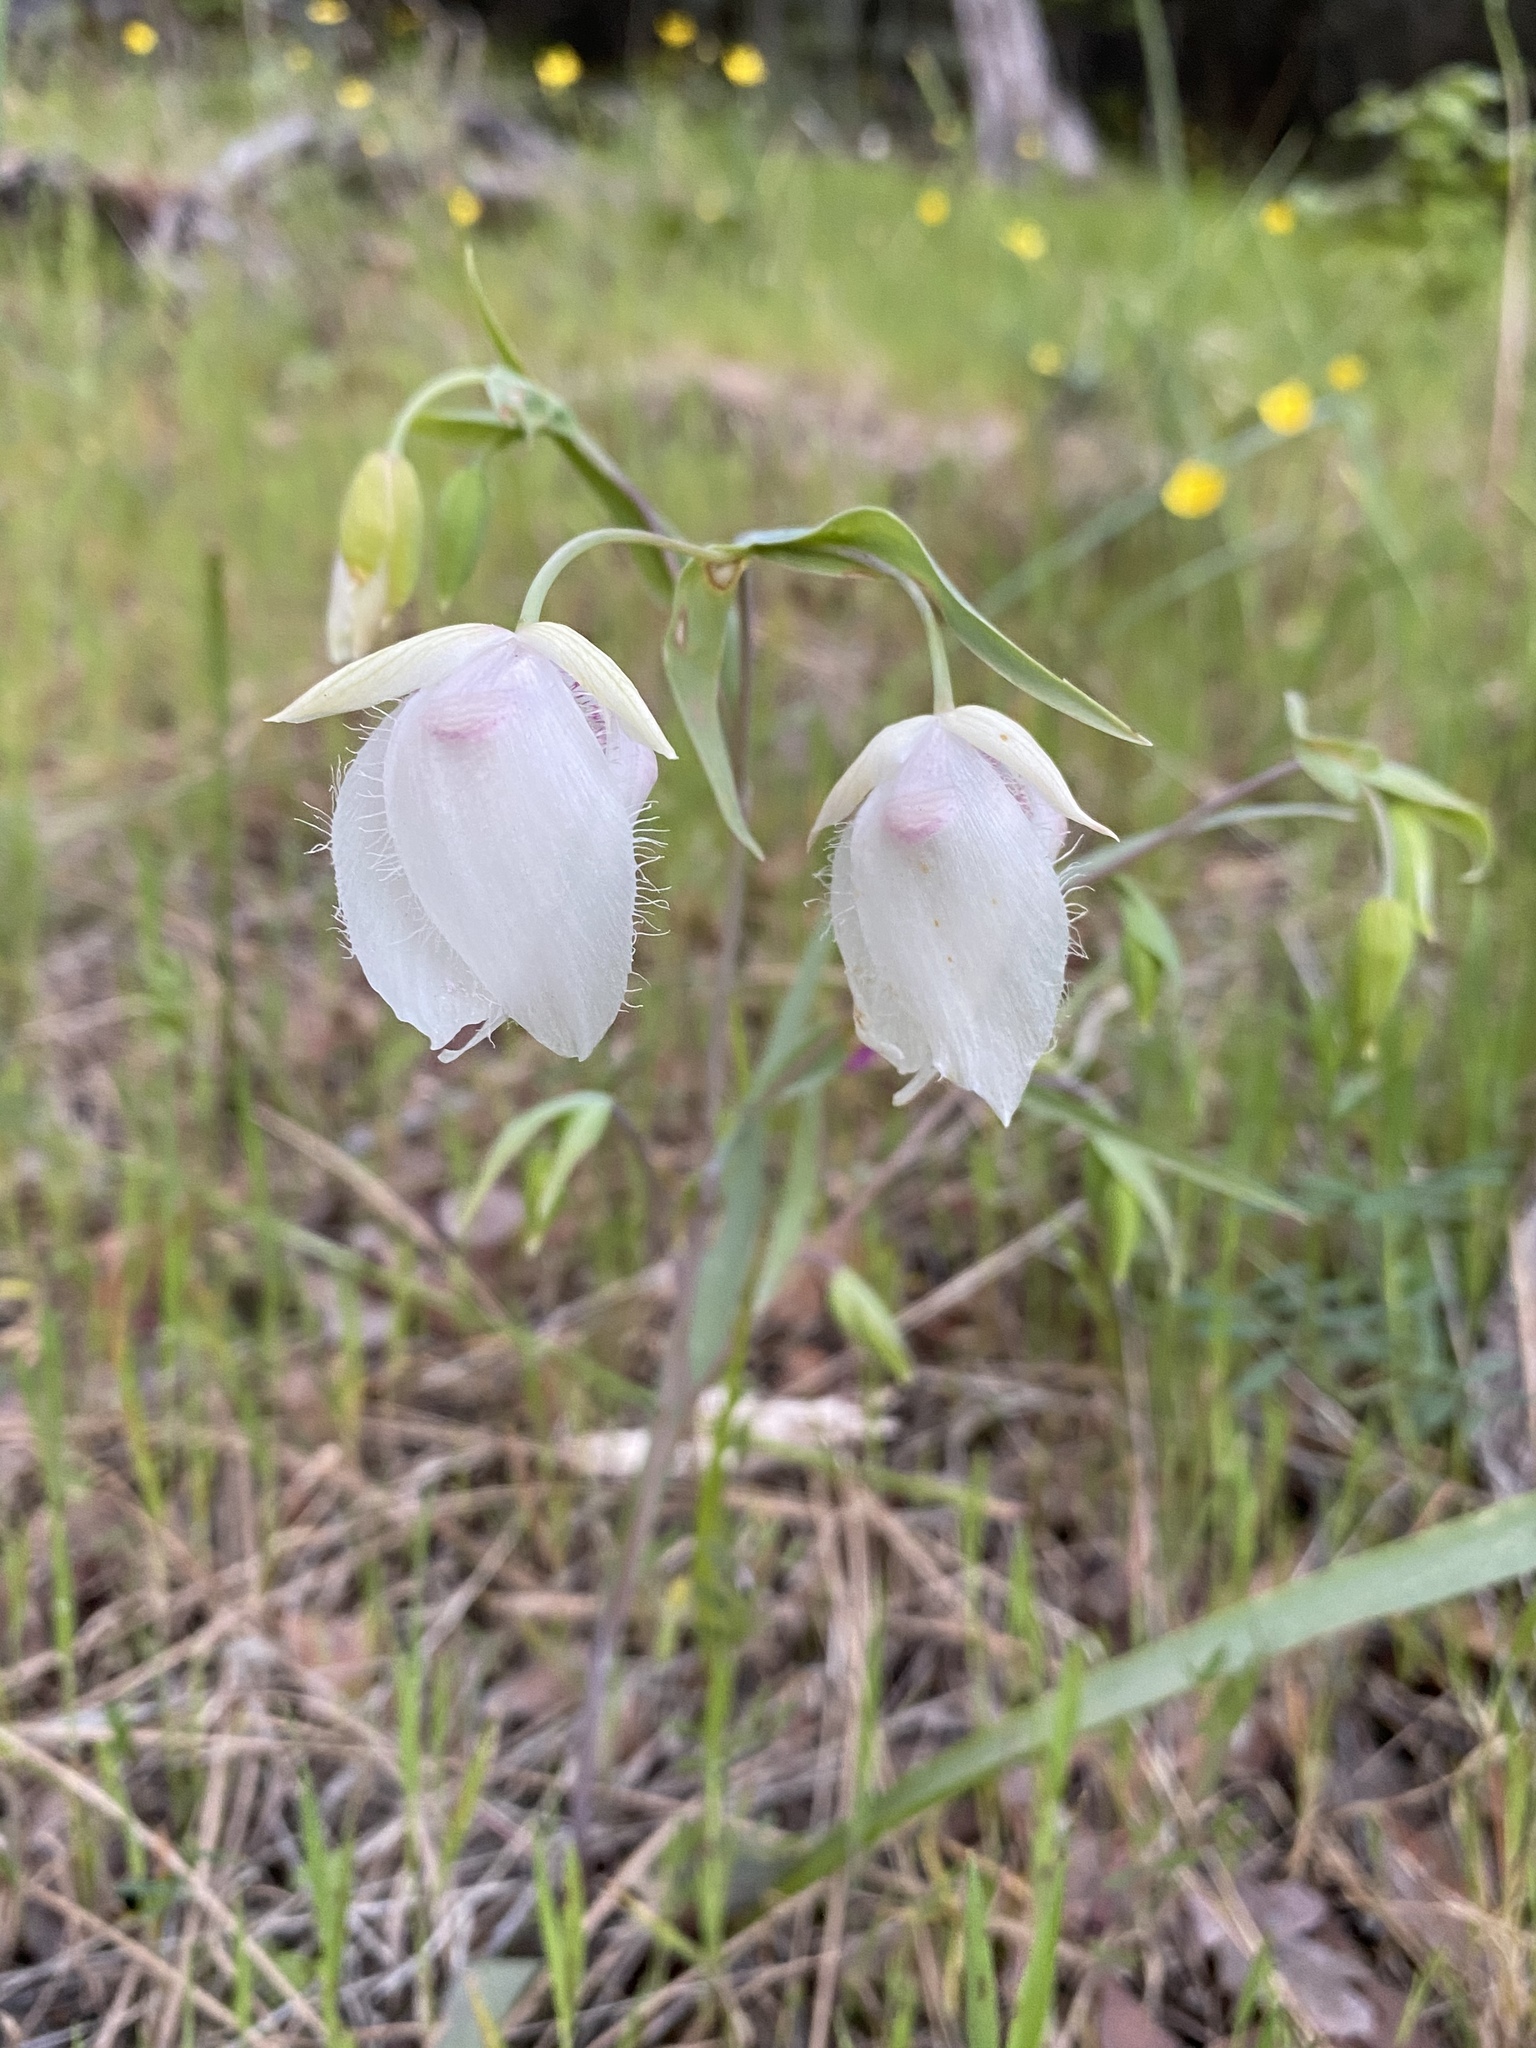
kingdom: Plantae
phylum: Tracheophyta
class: Liliopsida
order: Liliales
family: Liliaceae
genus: Calochortus
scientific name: Calochortus albus
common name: Fairy-lantern
